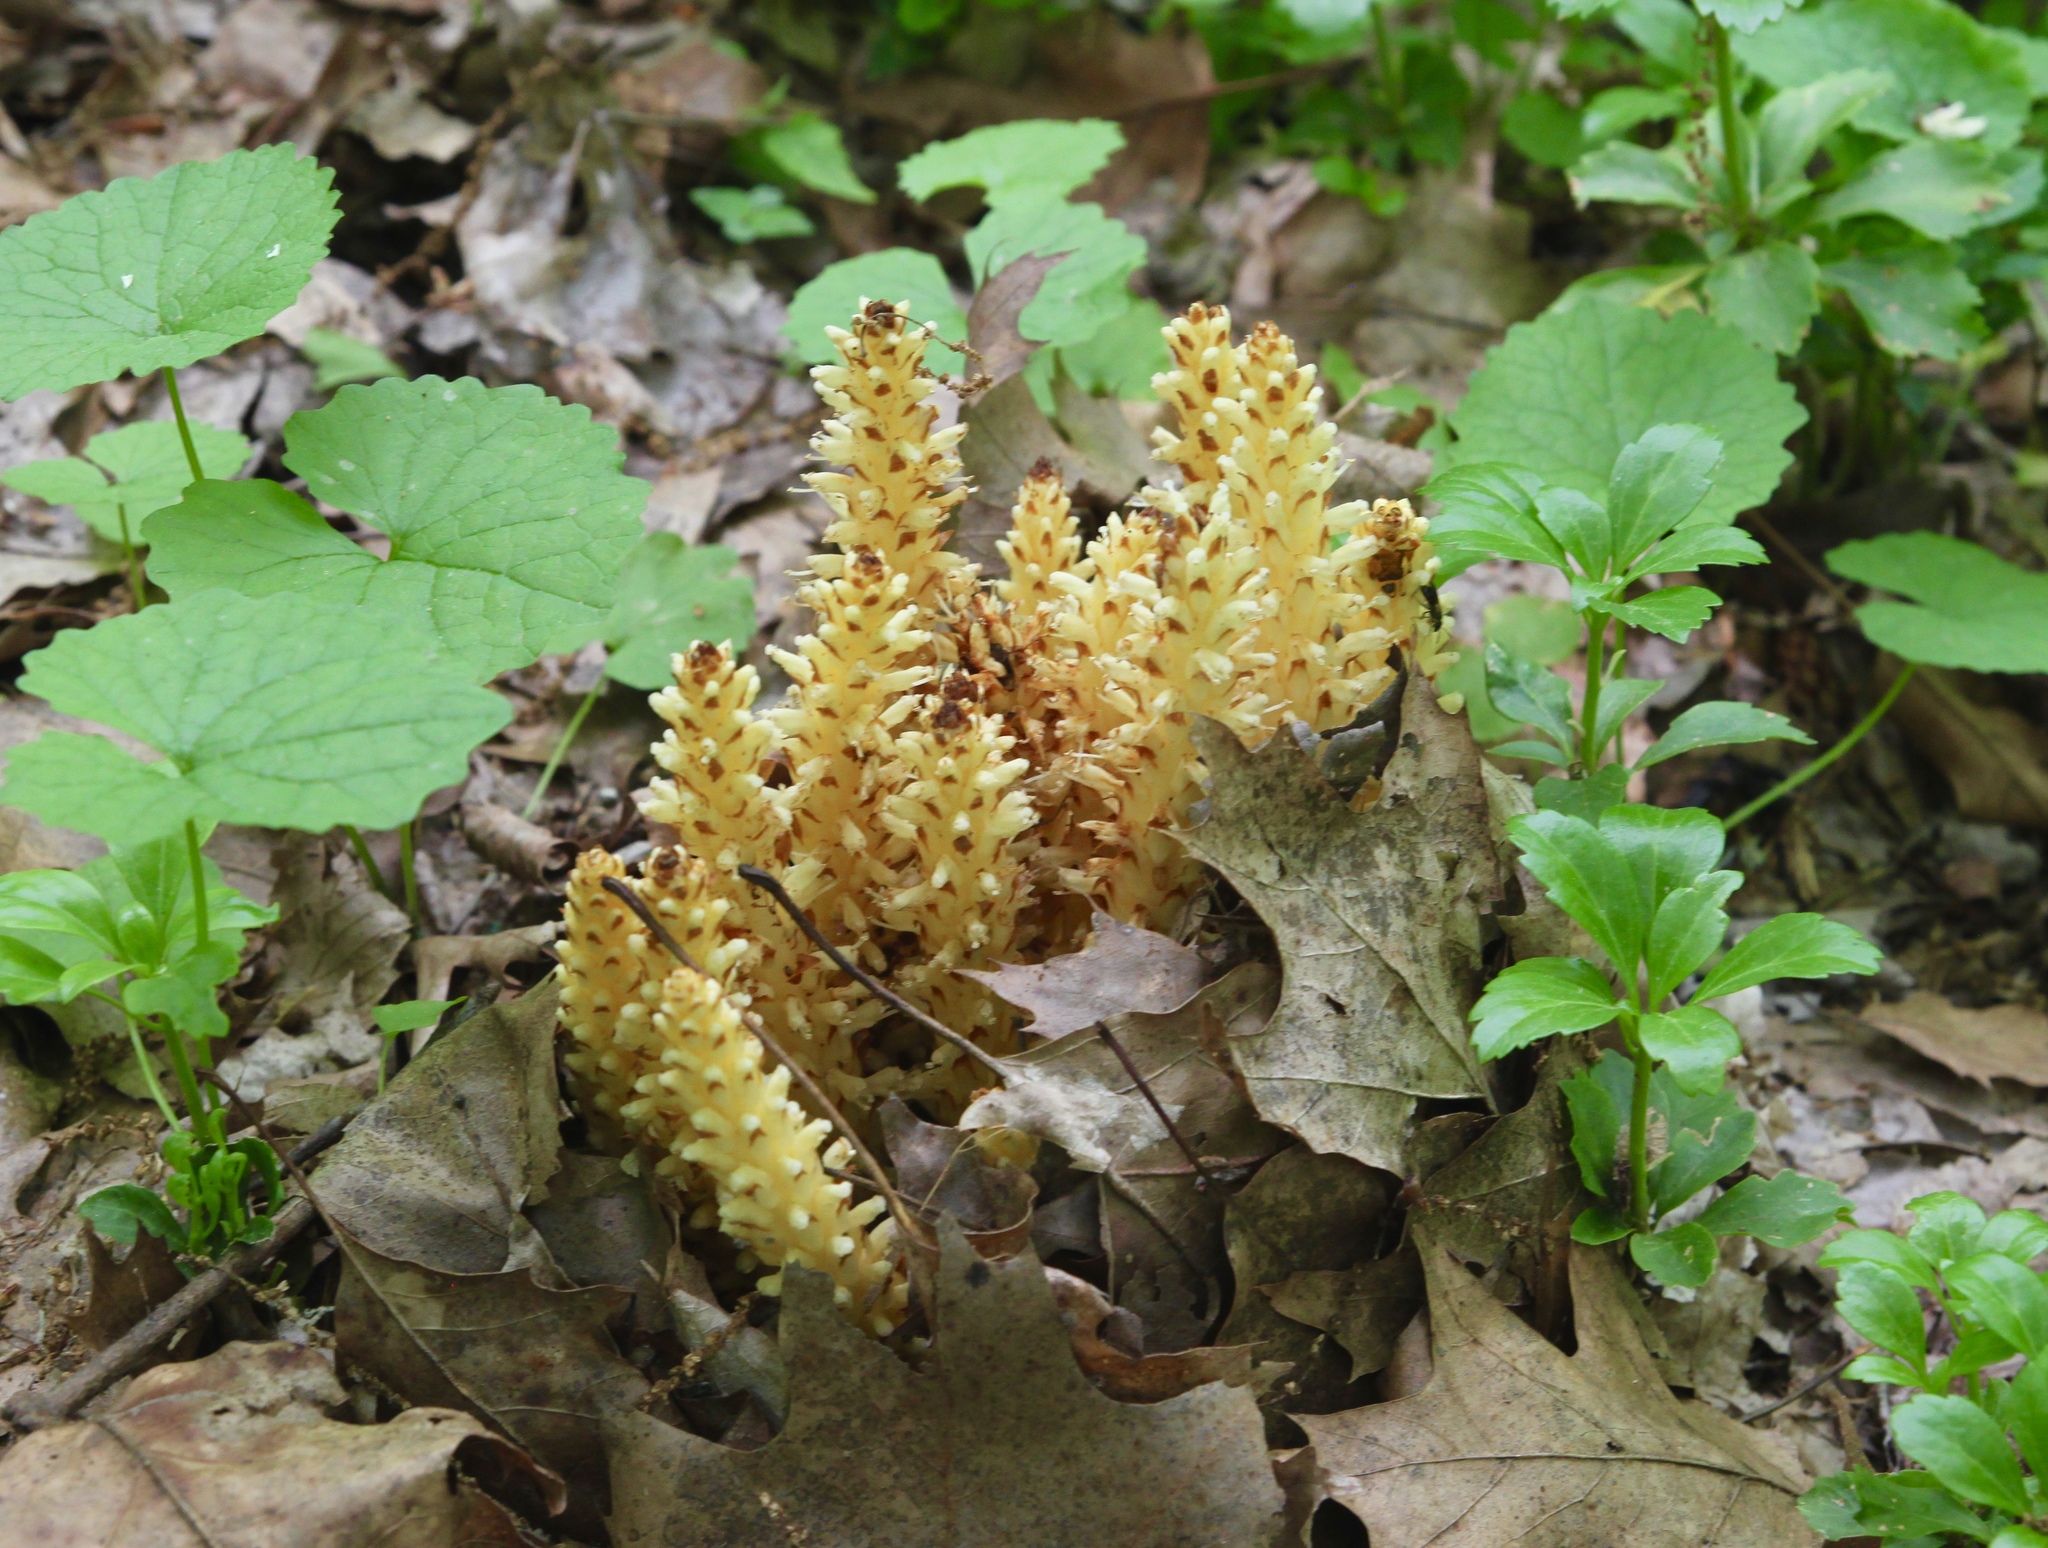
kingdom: Plantae
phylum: Tracheophyta
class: Magnoliopsida
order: Lamiales
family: Orobanchaceae
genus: Conopholis
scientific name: Conopholis americana
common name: American cancer-root
